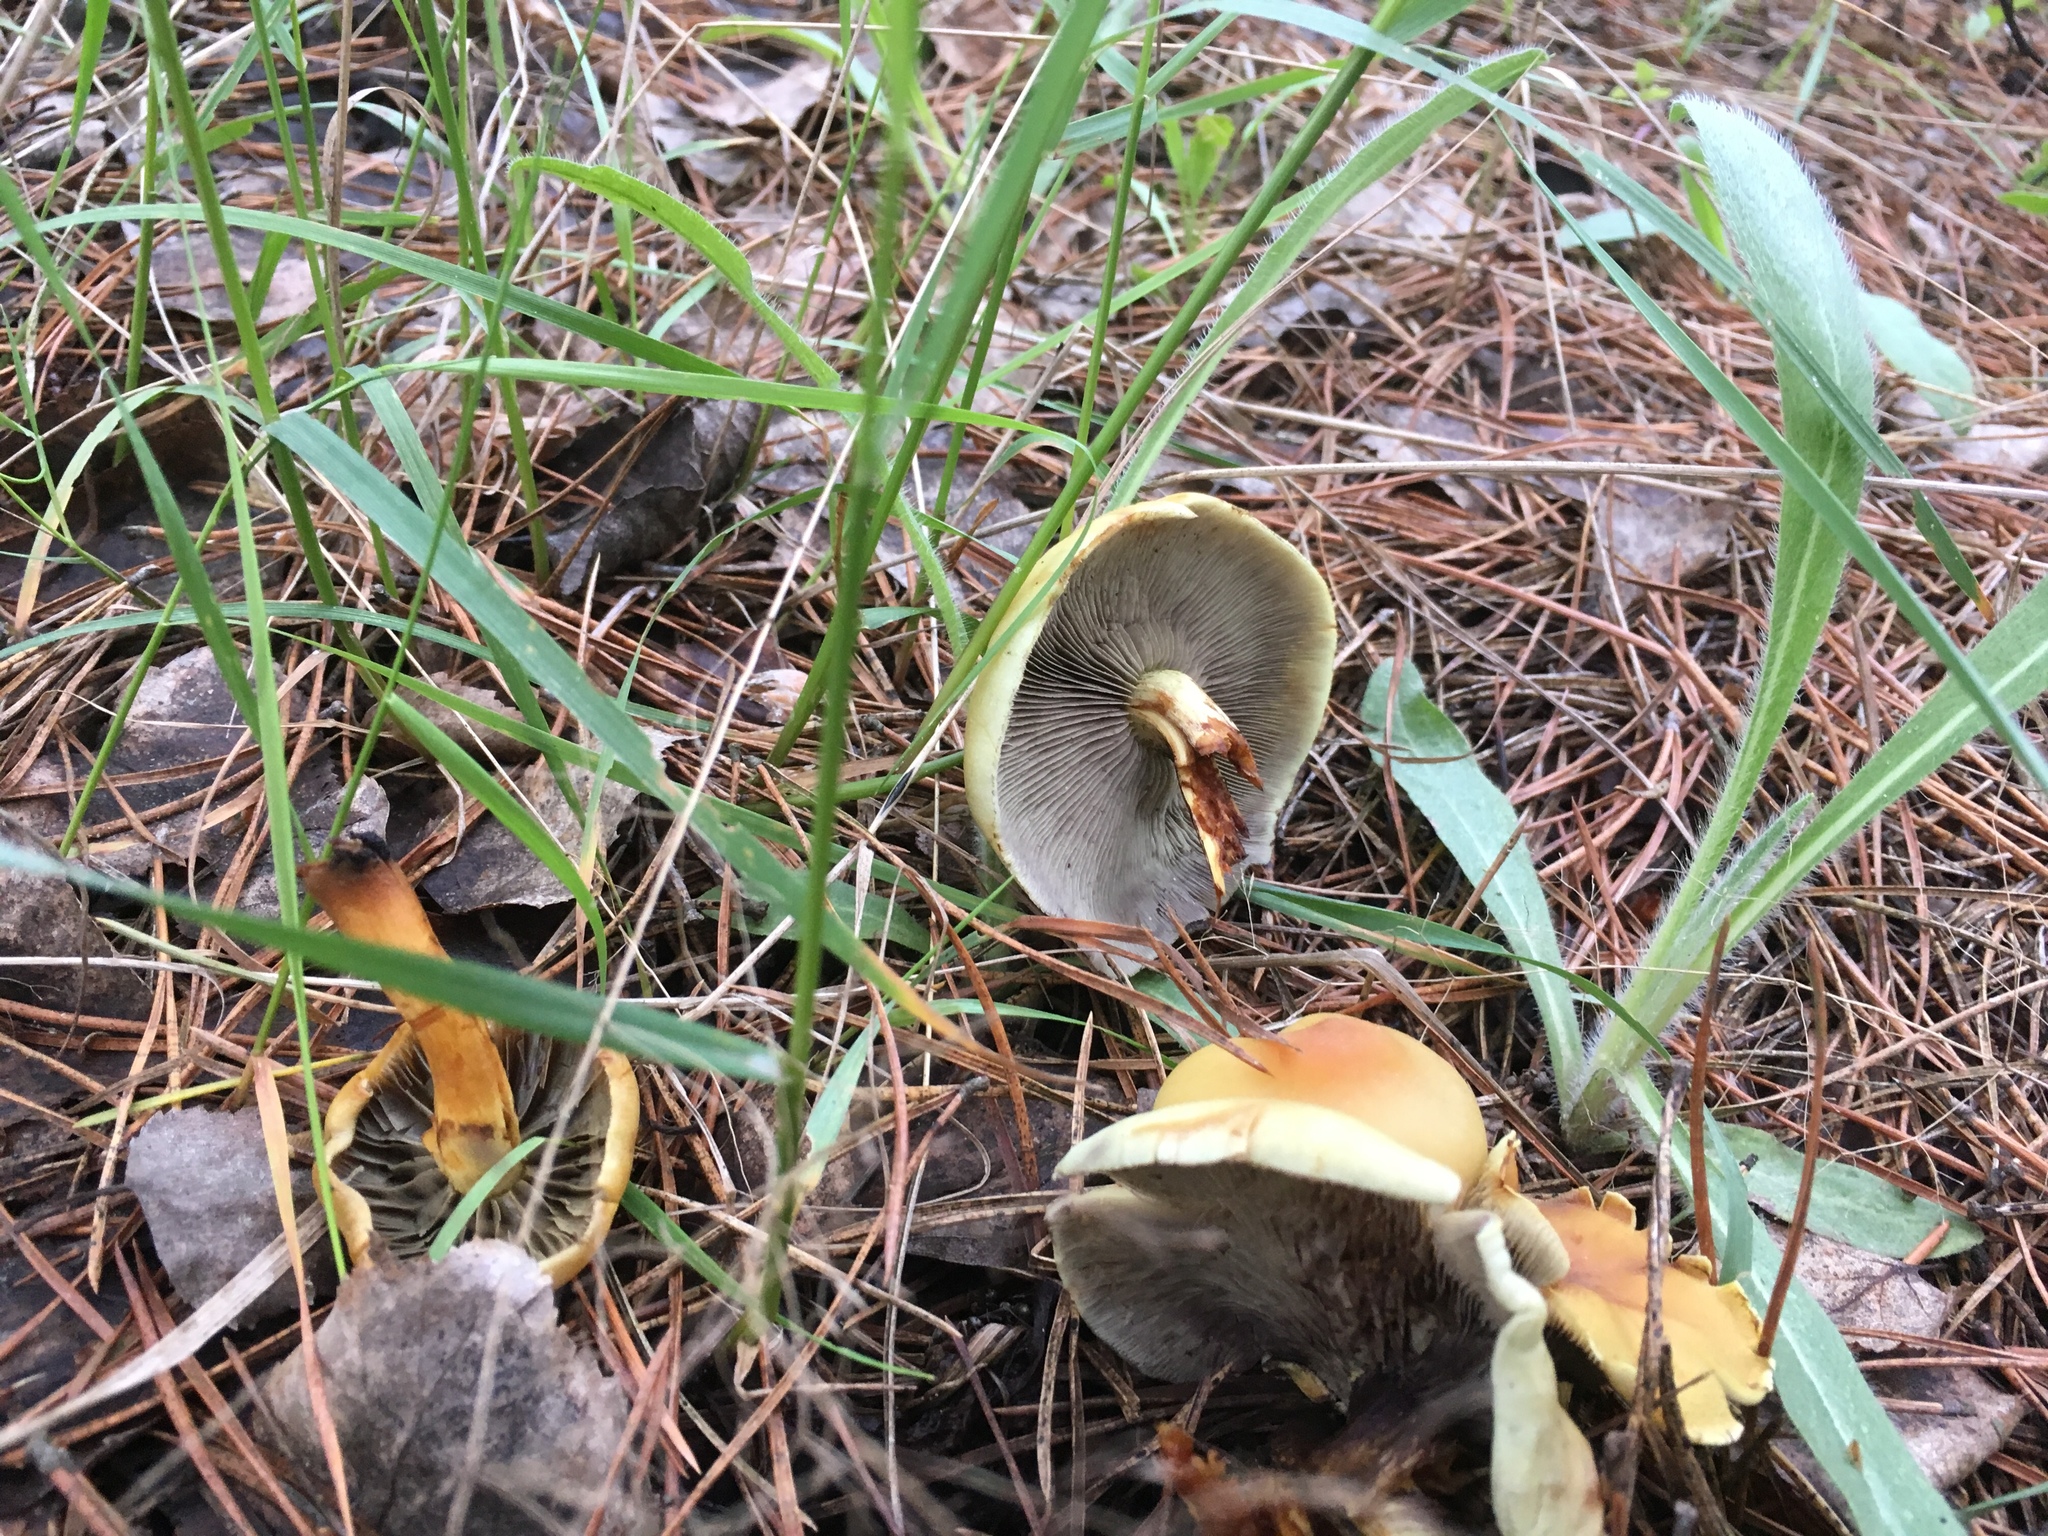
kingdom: Fungi
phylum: Basidiomycota
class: Agaricomycetes
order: Agaricales
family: Strophariaceae
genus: Hypholoma
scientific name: Hypholoma fasciculare
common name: Sulphur tuft
